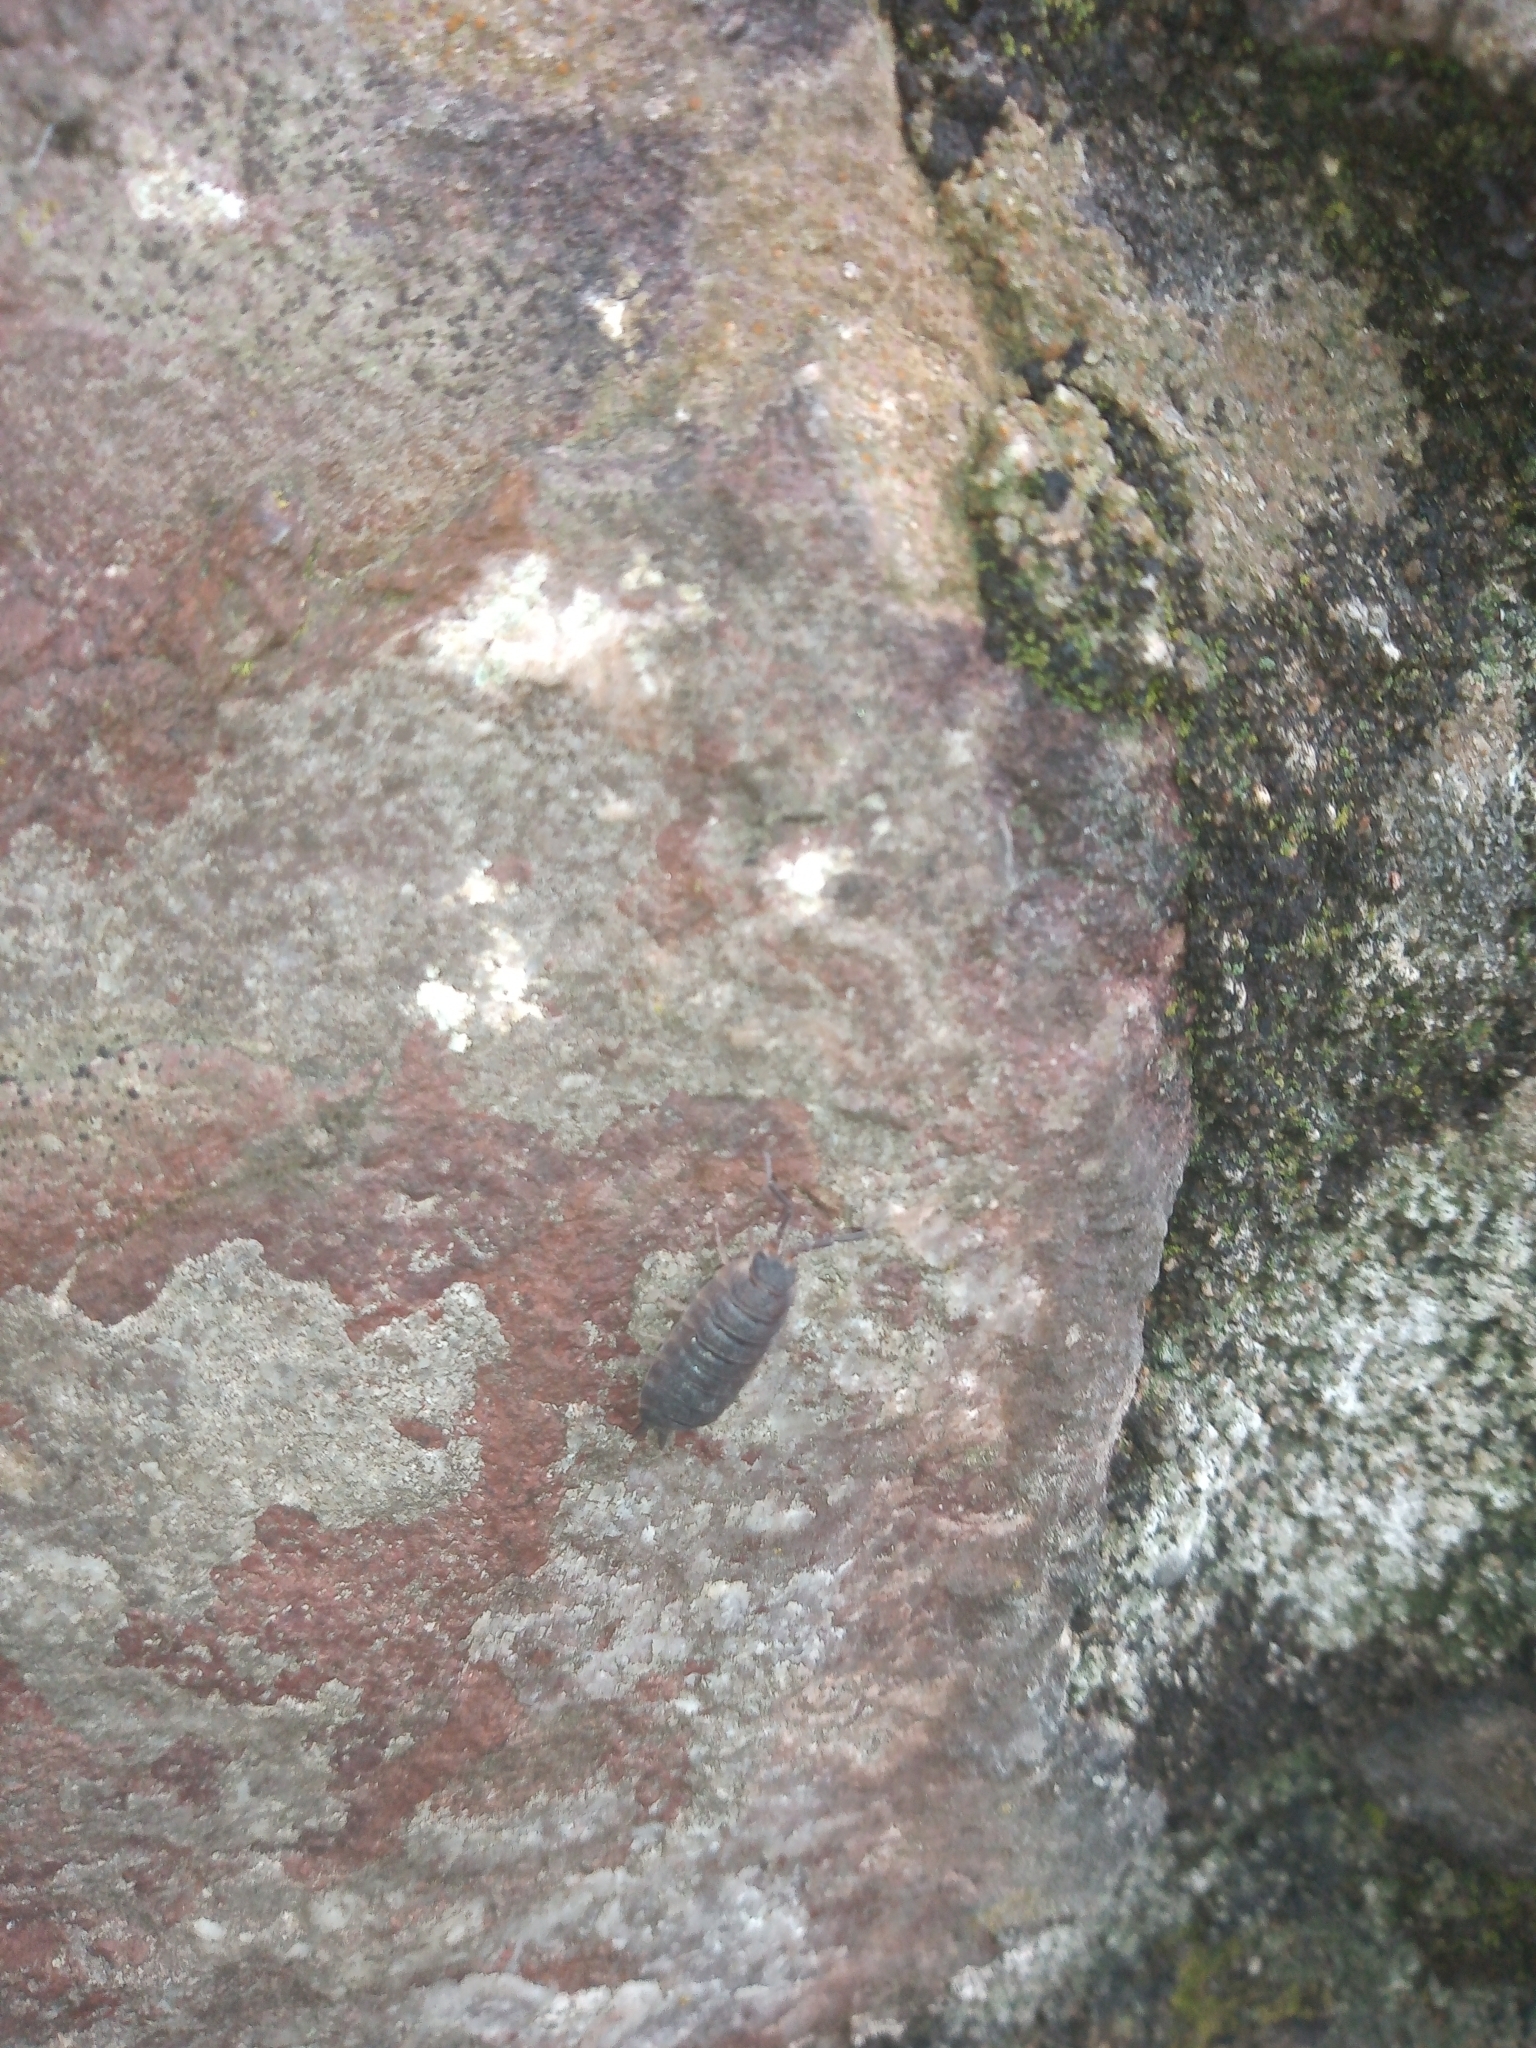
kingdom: Animalia
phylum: Arthropoda
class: Malacostraca
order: Isopoda
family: Porcellionidae
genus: Porcellio
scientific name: Porcellio scaber
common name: Common rough woodlouse
